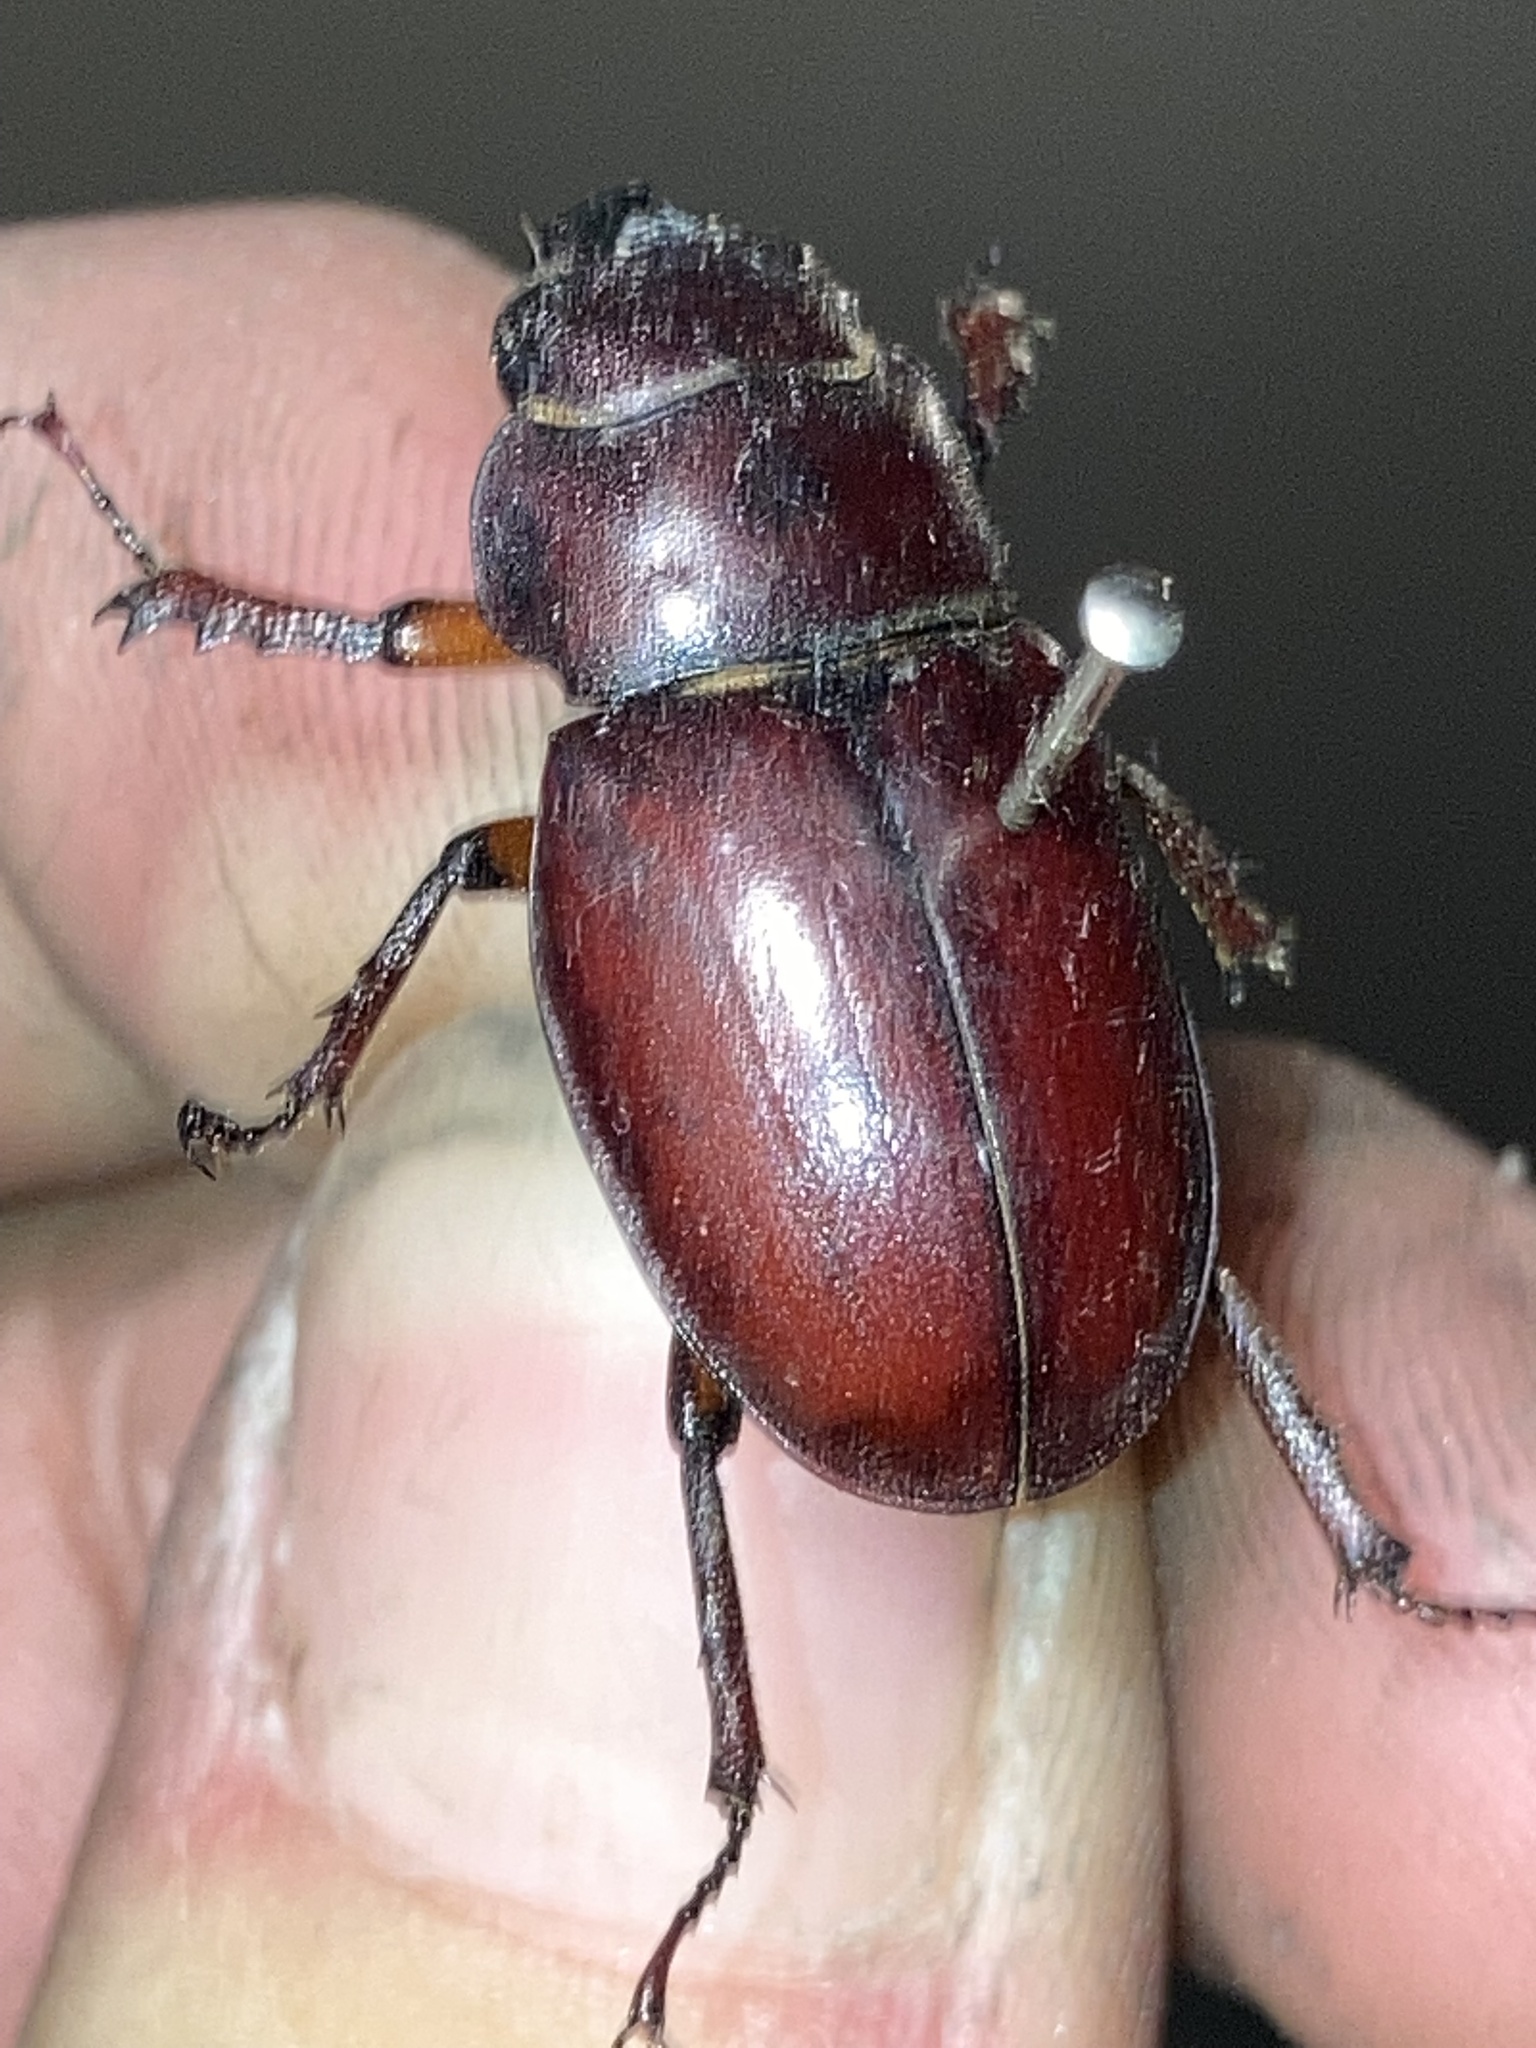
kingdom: Animalia
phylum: Arthropoda
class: Insecta
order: Coleoptera
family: Lucanidae
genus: Lucanus
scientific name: Lucanus capreolus
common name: Stag beetle
